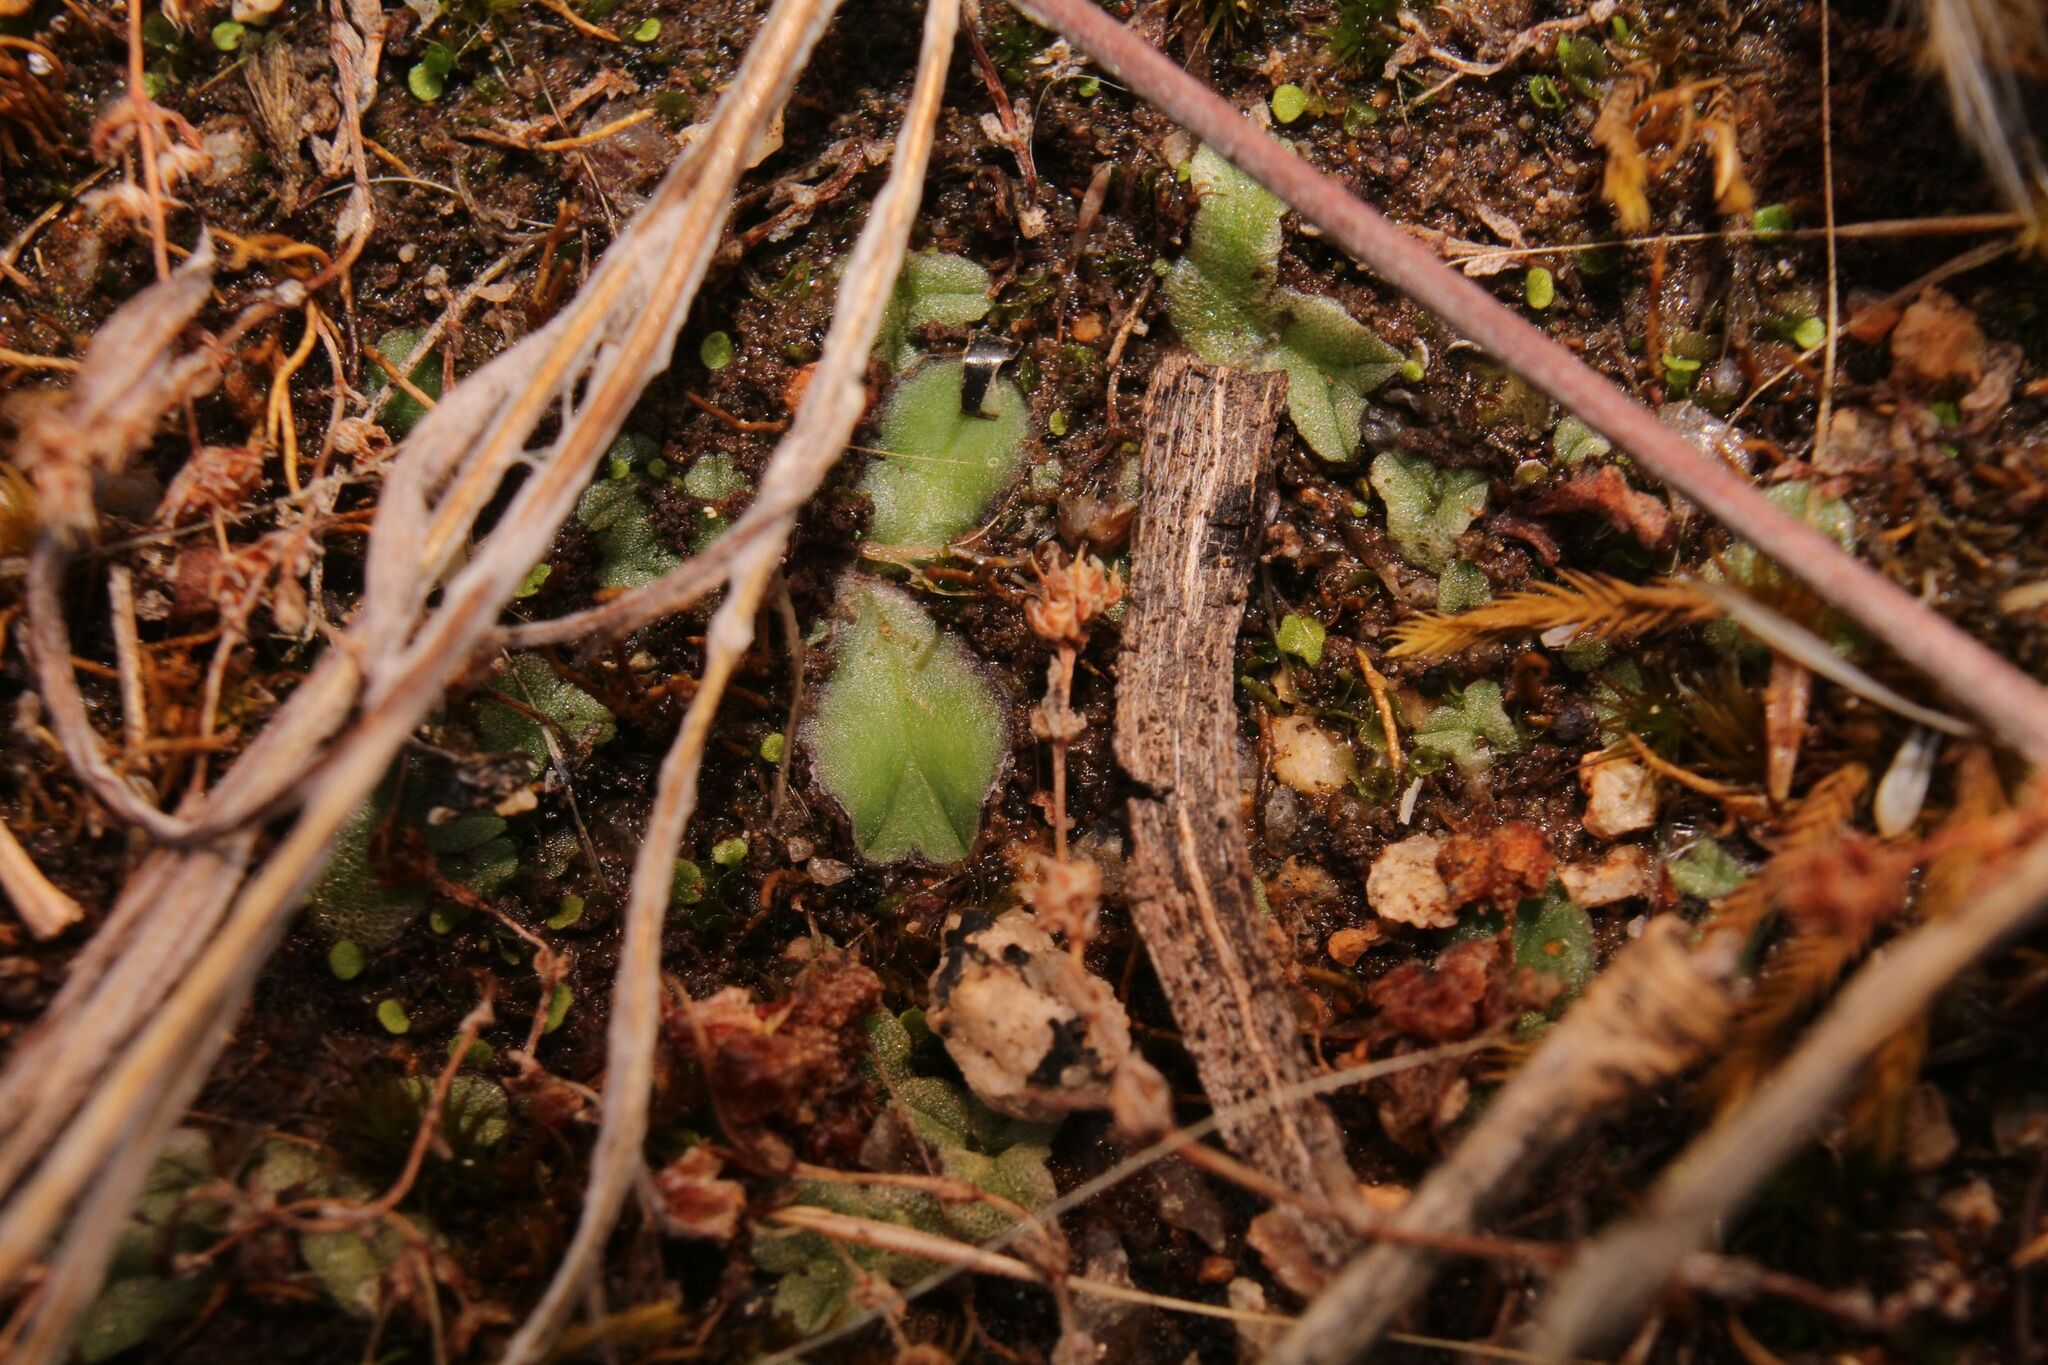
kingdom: Plantae
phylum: Marchantiophyta
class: Marchantiopsida
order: Marchantiales
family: Ricciaceae
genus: Riccia
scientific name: Riccia cartilaginosa
